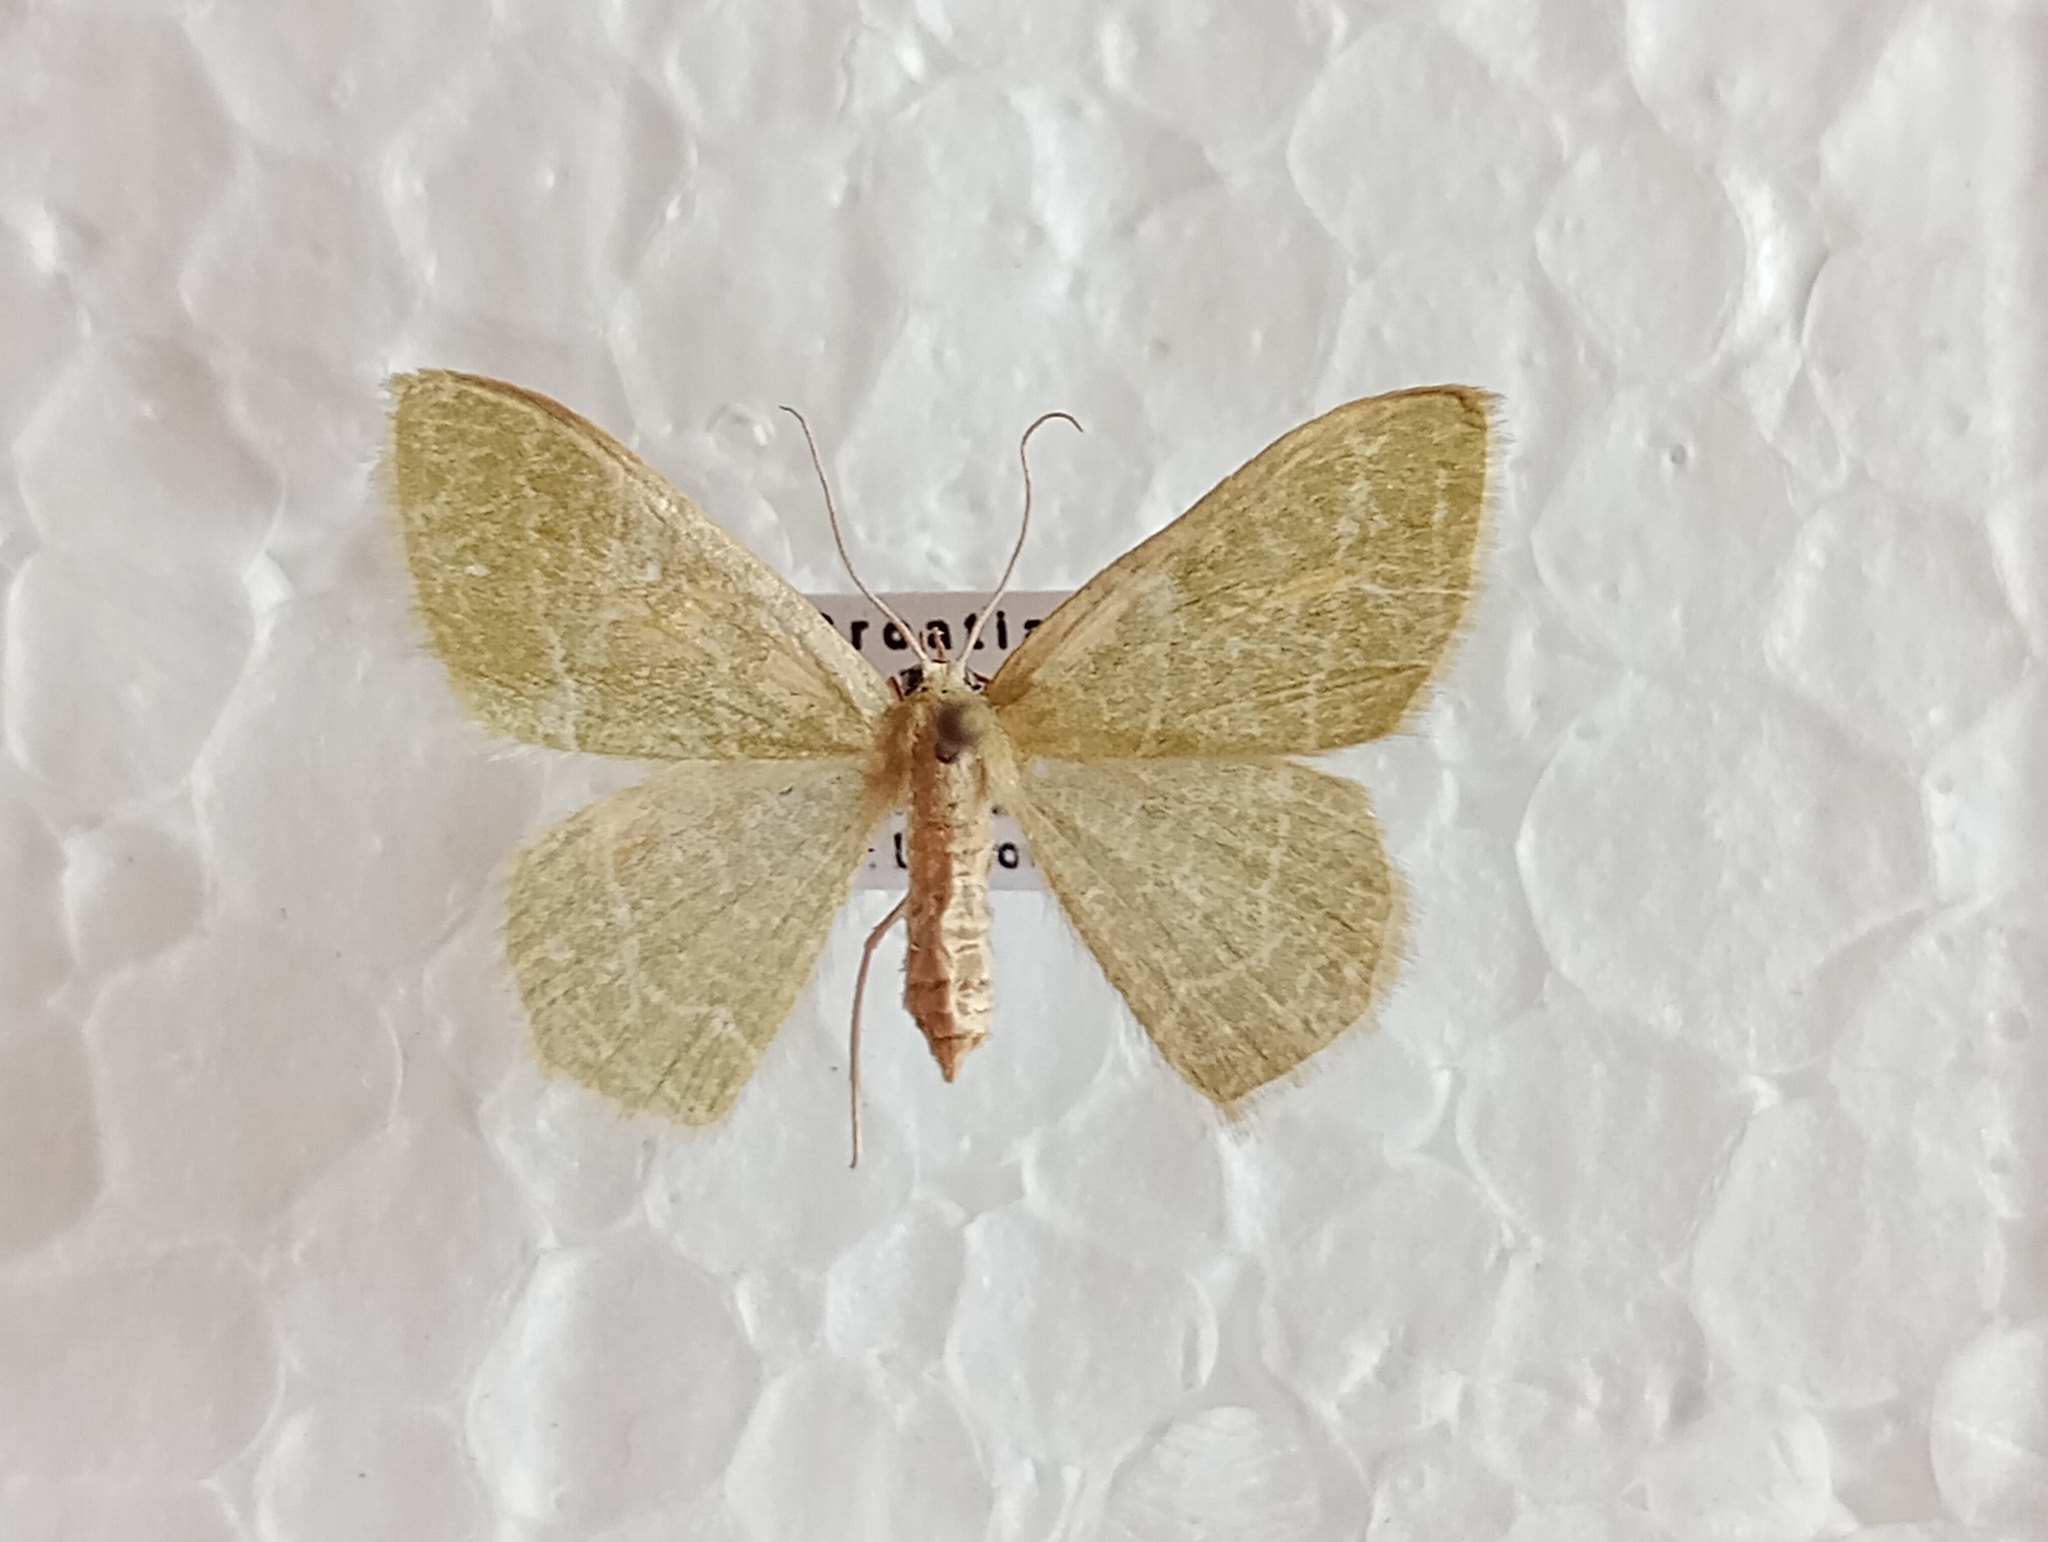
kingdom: Animalia
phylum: Arthropoda
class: Insecta
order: Lepidoptera
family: Geometridae
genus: Chlorissa
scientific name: Chlorissa etruscaria
